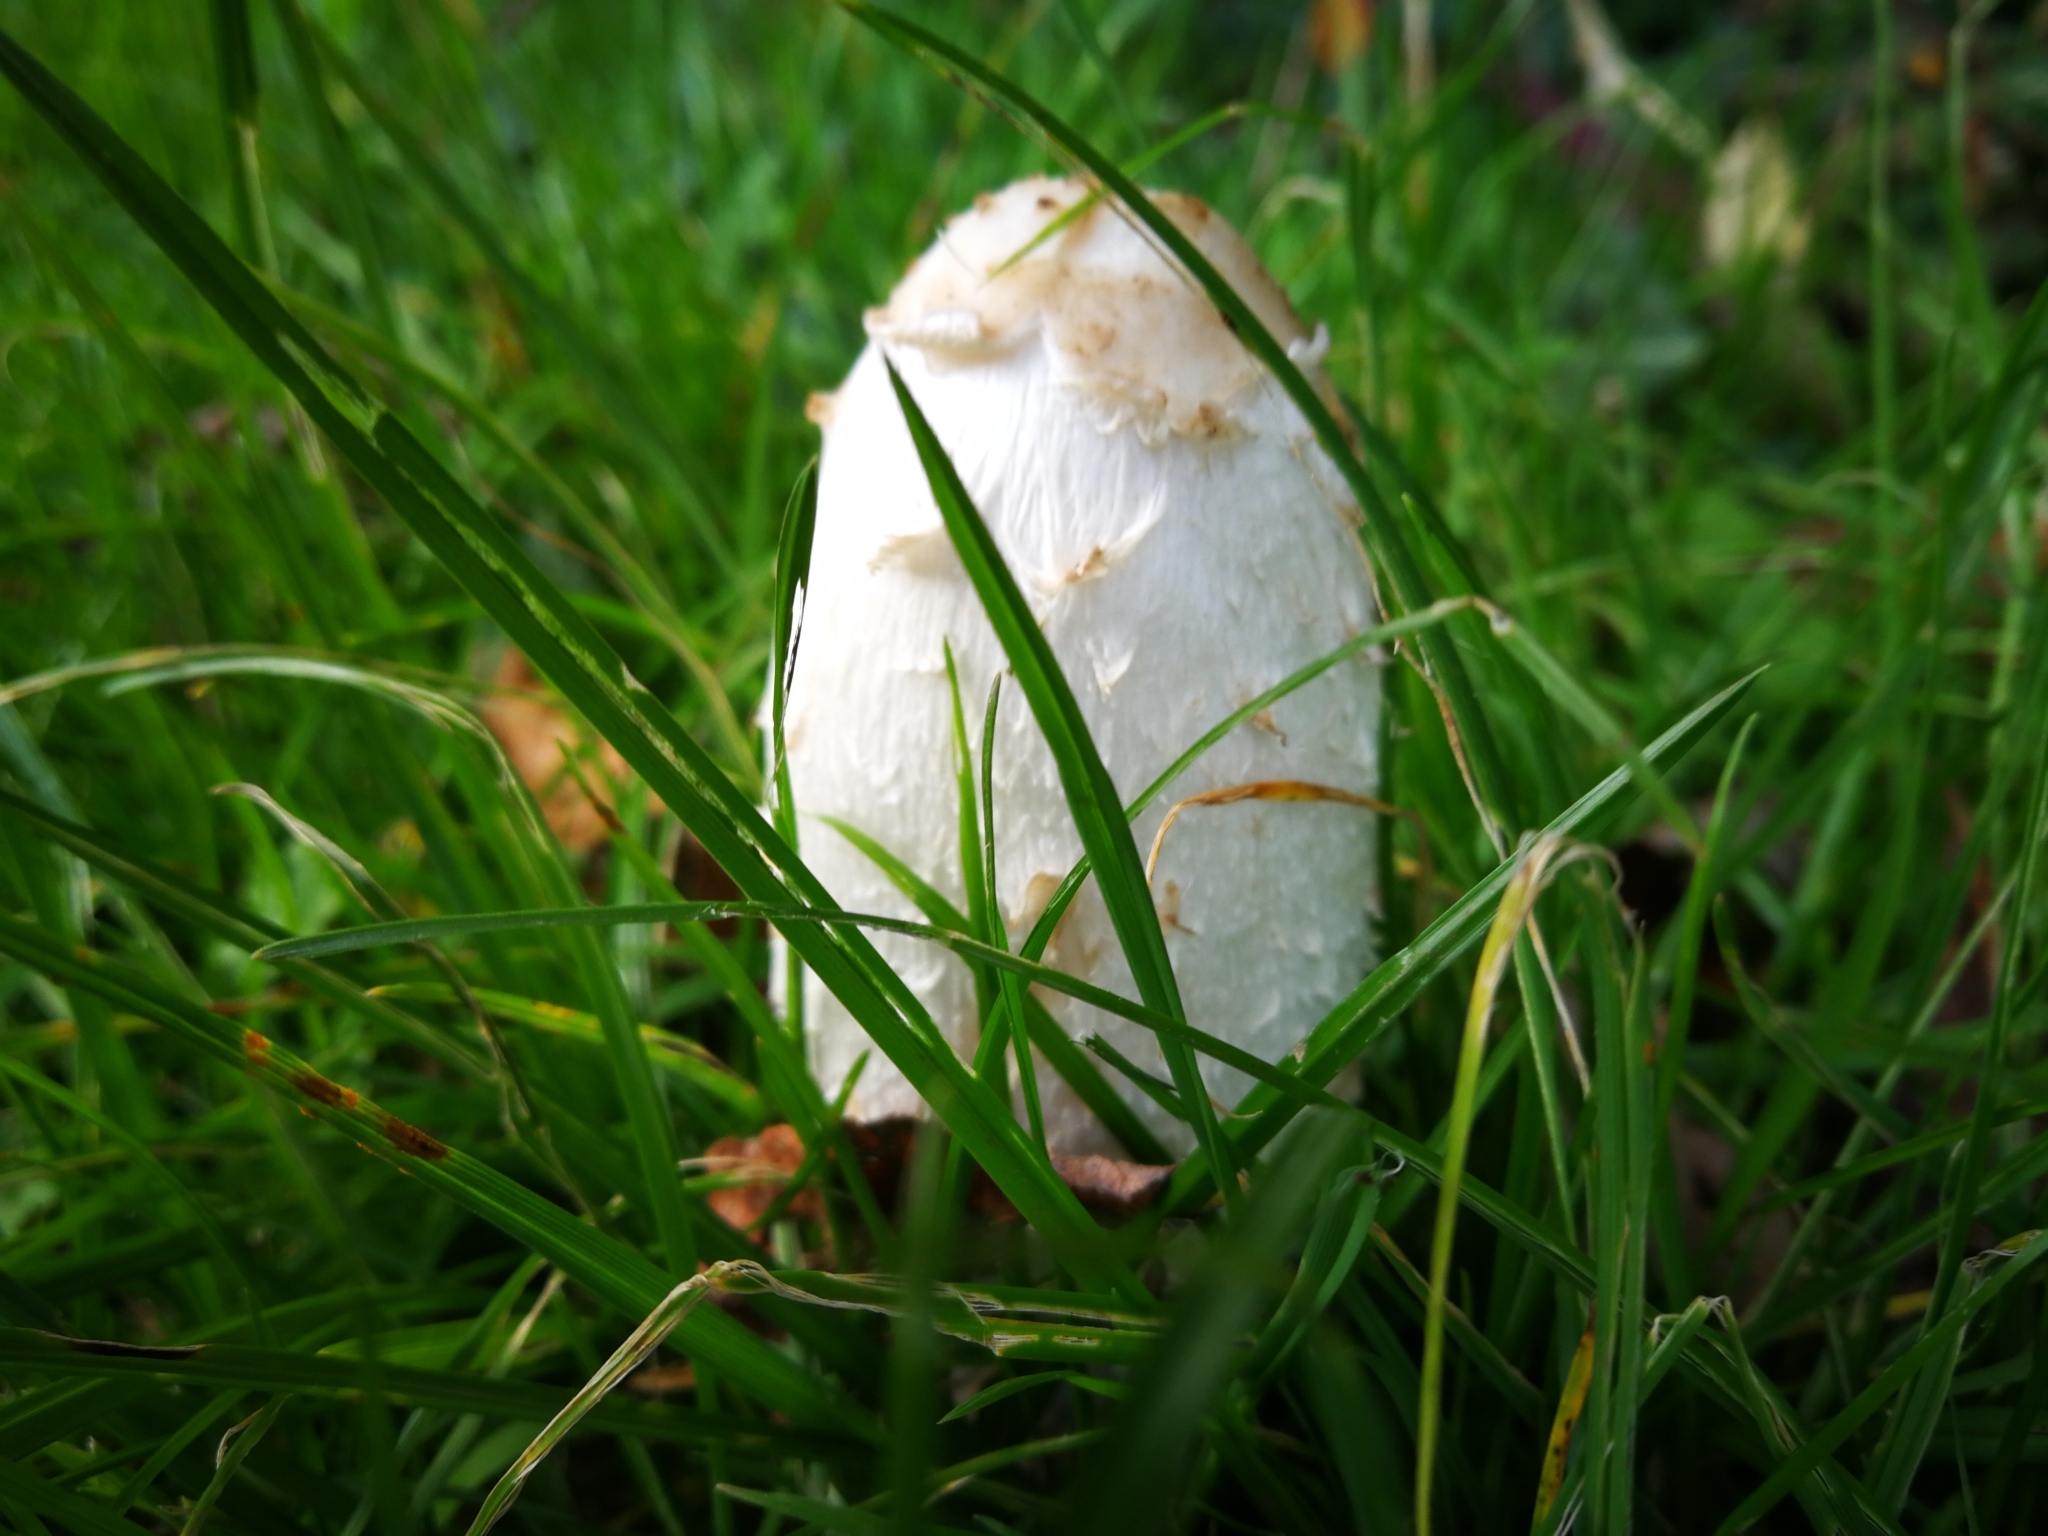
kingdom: Fungi
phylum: Basidiomycota
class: Agaricomycetes
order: Agaricales
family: Agaricaceae
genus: Coprinus
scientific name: Coprinus comatus
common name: Lawyer's wig
